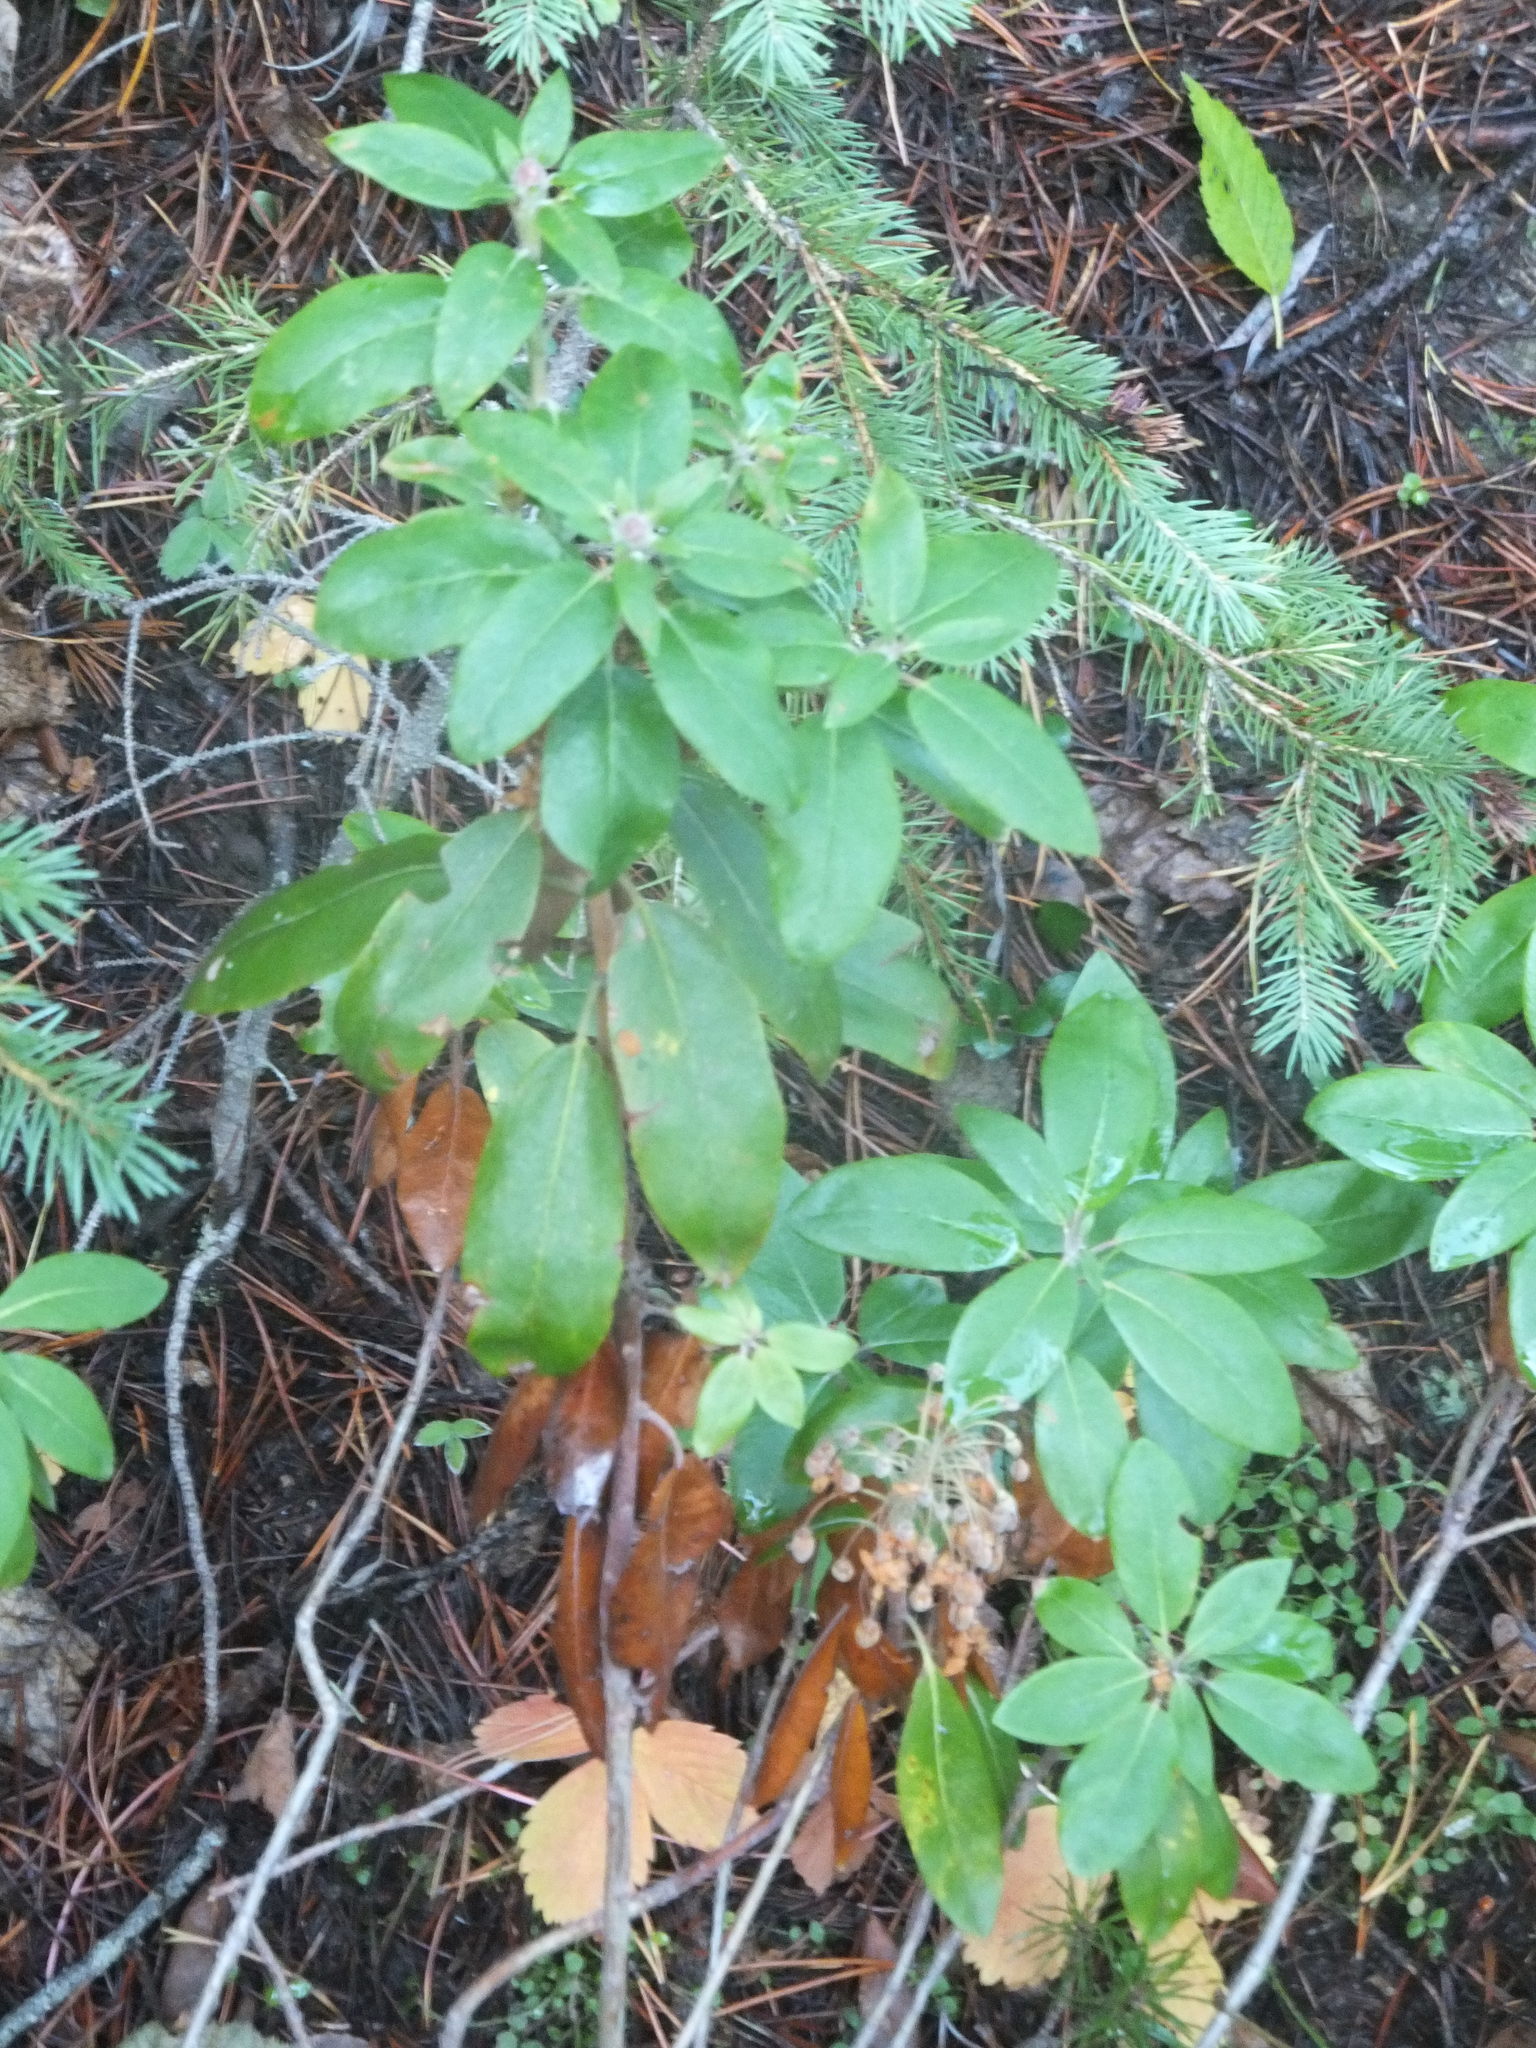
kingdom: Plantae
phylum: Tracheophyta
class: Magnoliopsida
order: Ericales
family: Ericaceae
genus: Rhododendron
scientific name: Rhododendron columbianum
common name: Western labrador tea
